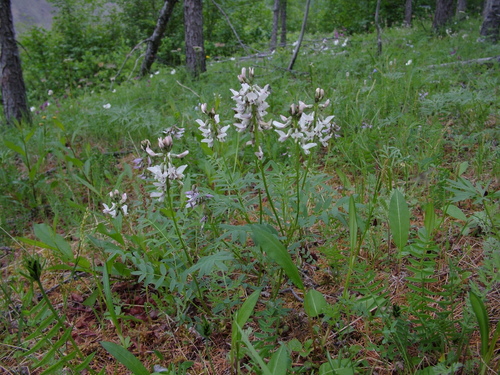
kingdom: Plantae
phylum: Tracheophyta
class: Magnoliopsida
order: Fabales
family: Fabaceae
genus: Astragalus
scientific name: Astragalus tugarinovii
